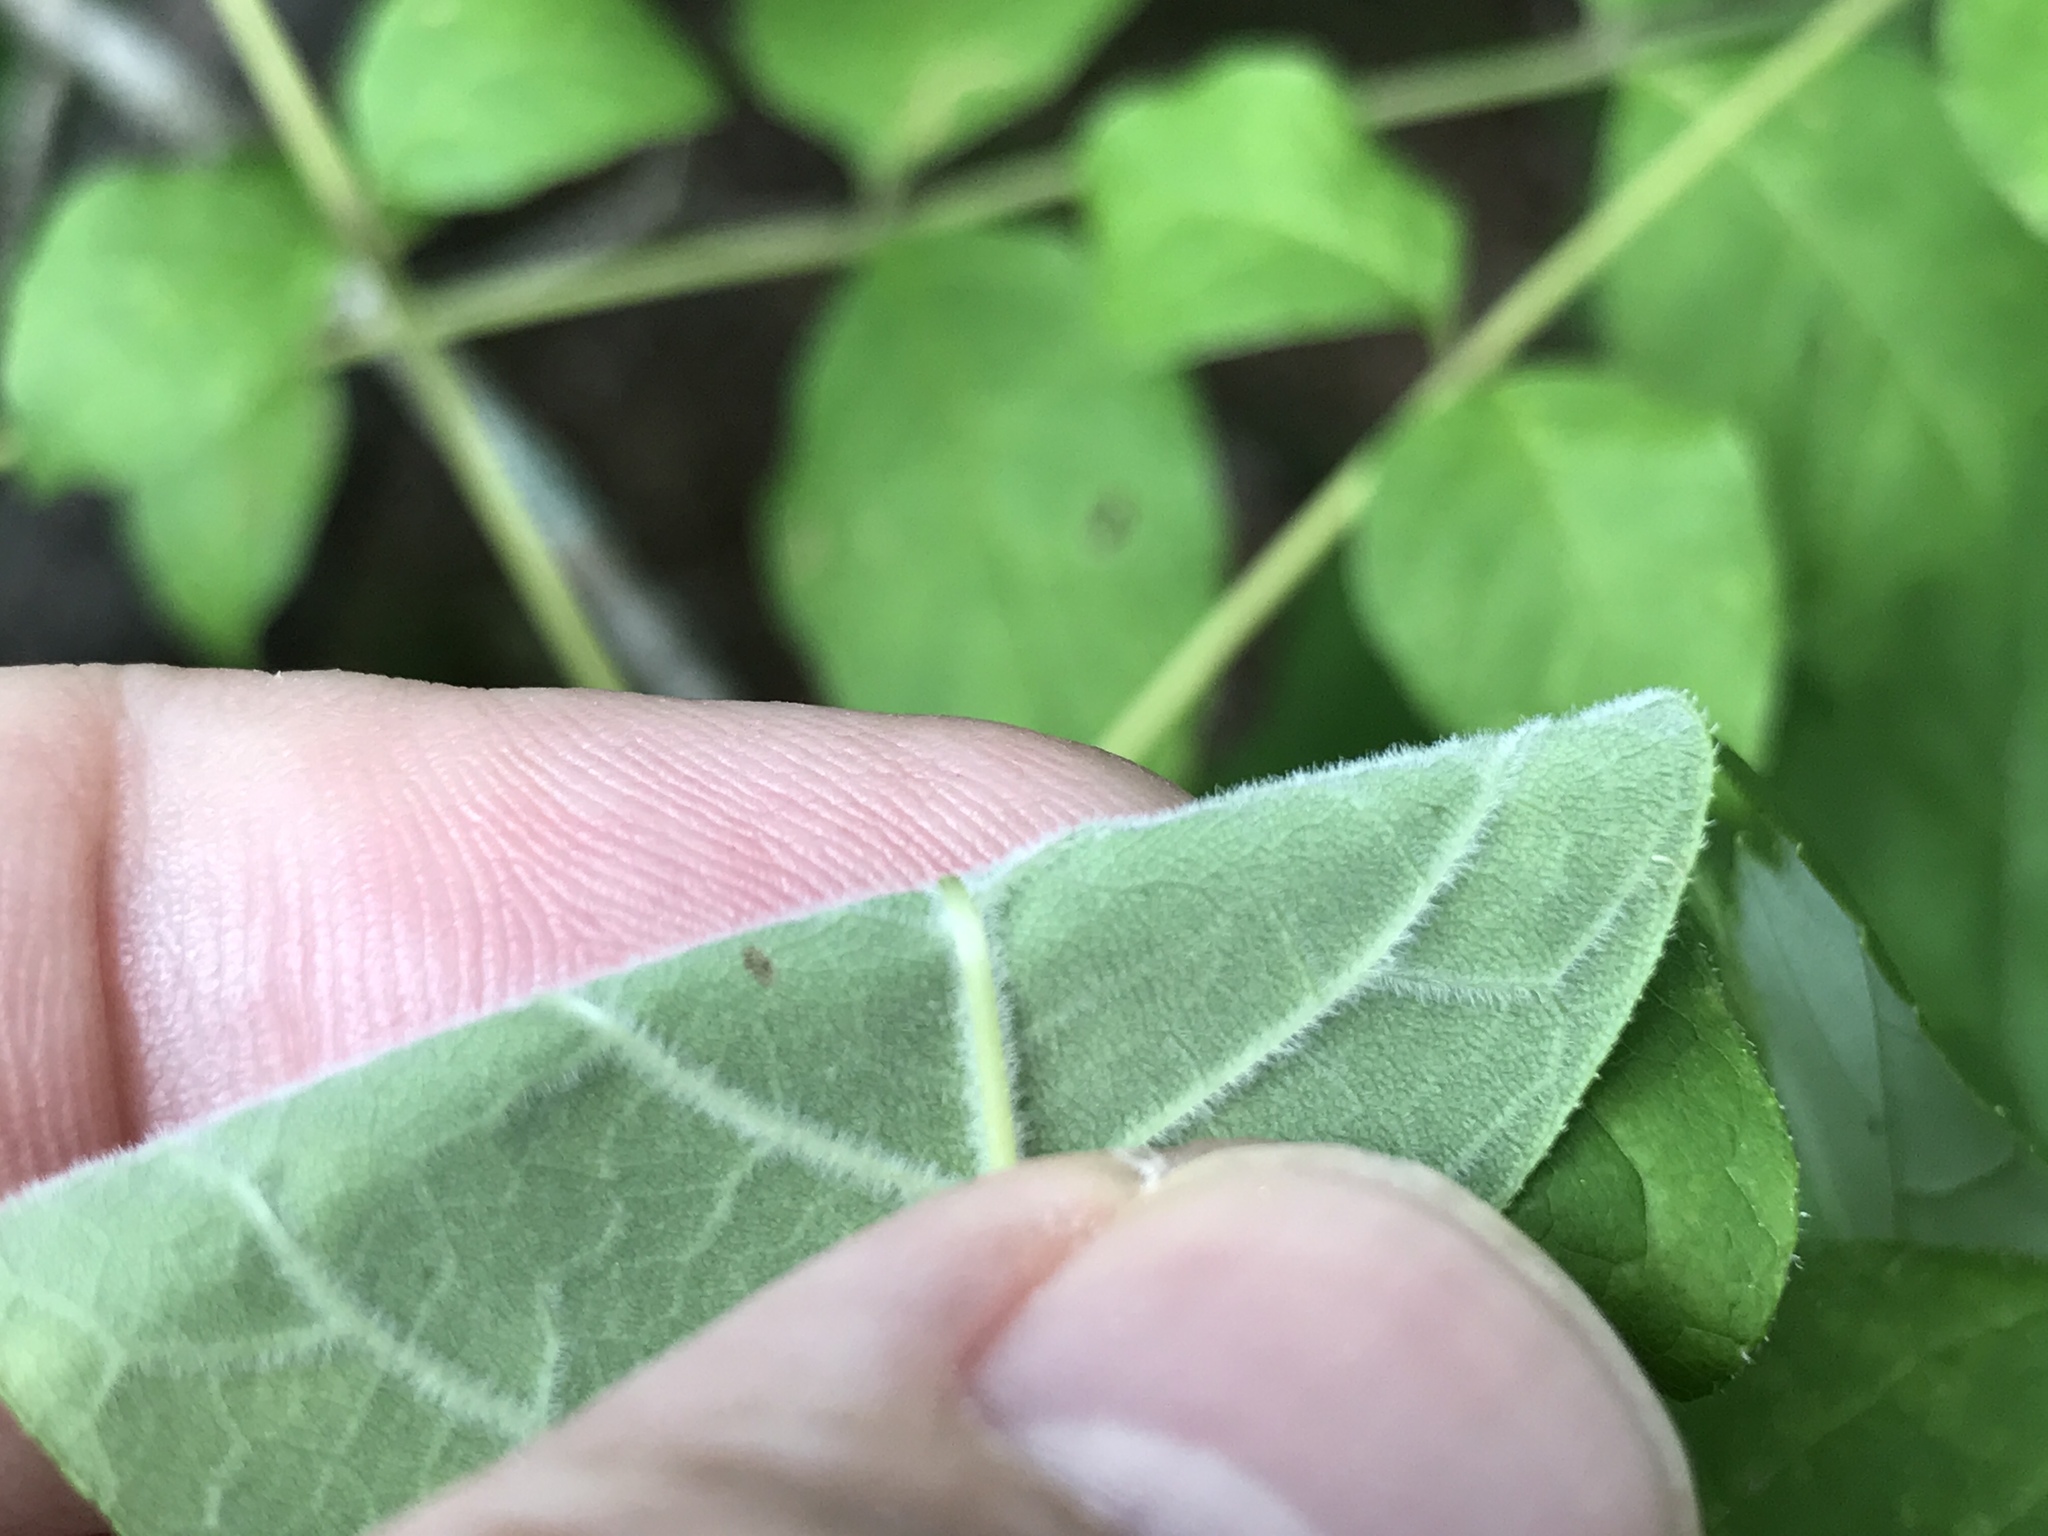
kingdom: Plantae
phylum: Tracheophyta
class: Magnoliopsida
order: Lamiales
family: Oleaceae
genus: Fraxinus
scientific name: Fraxinus americana
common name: White ash
